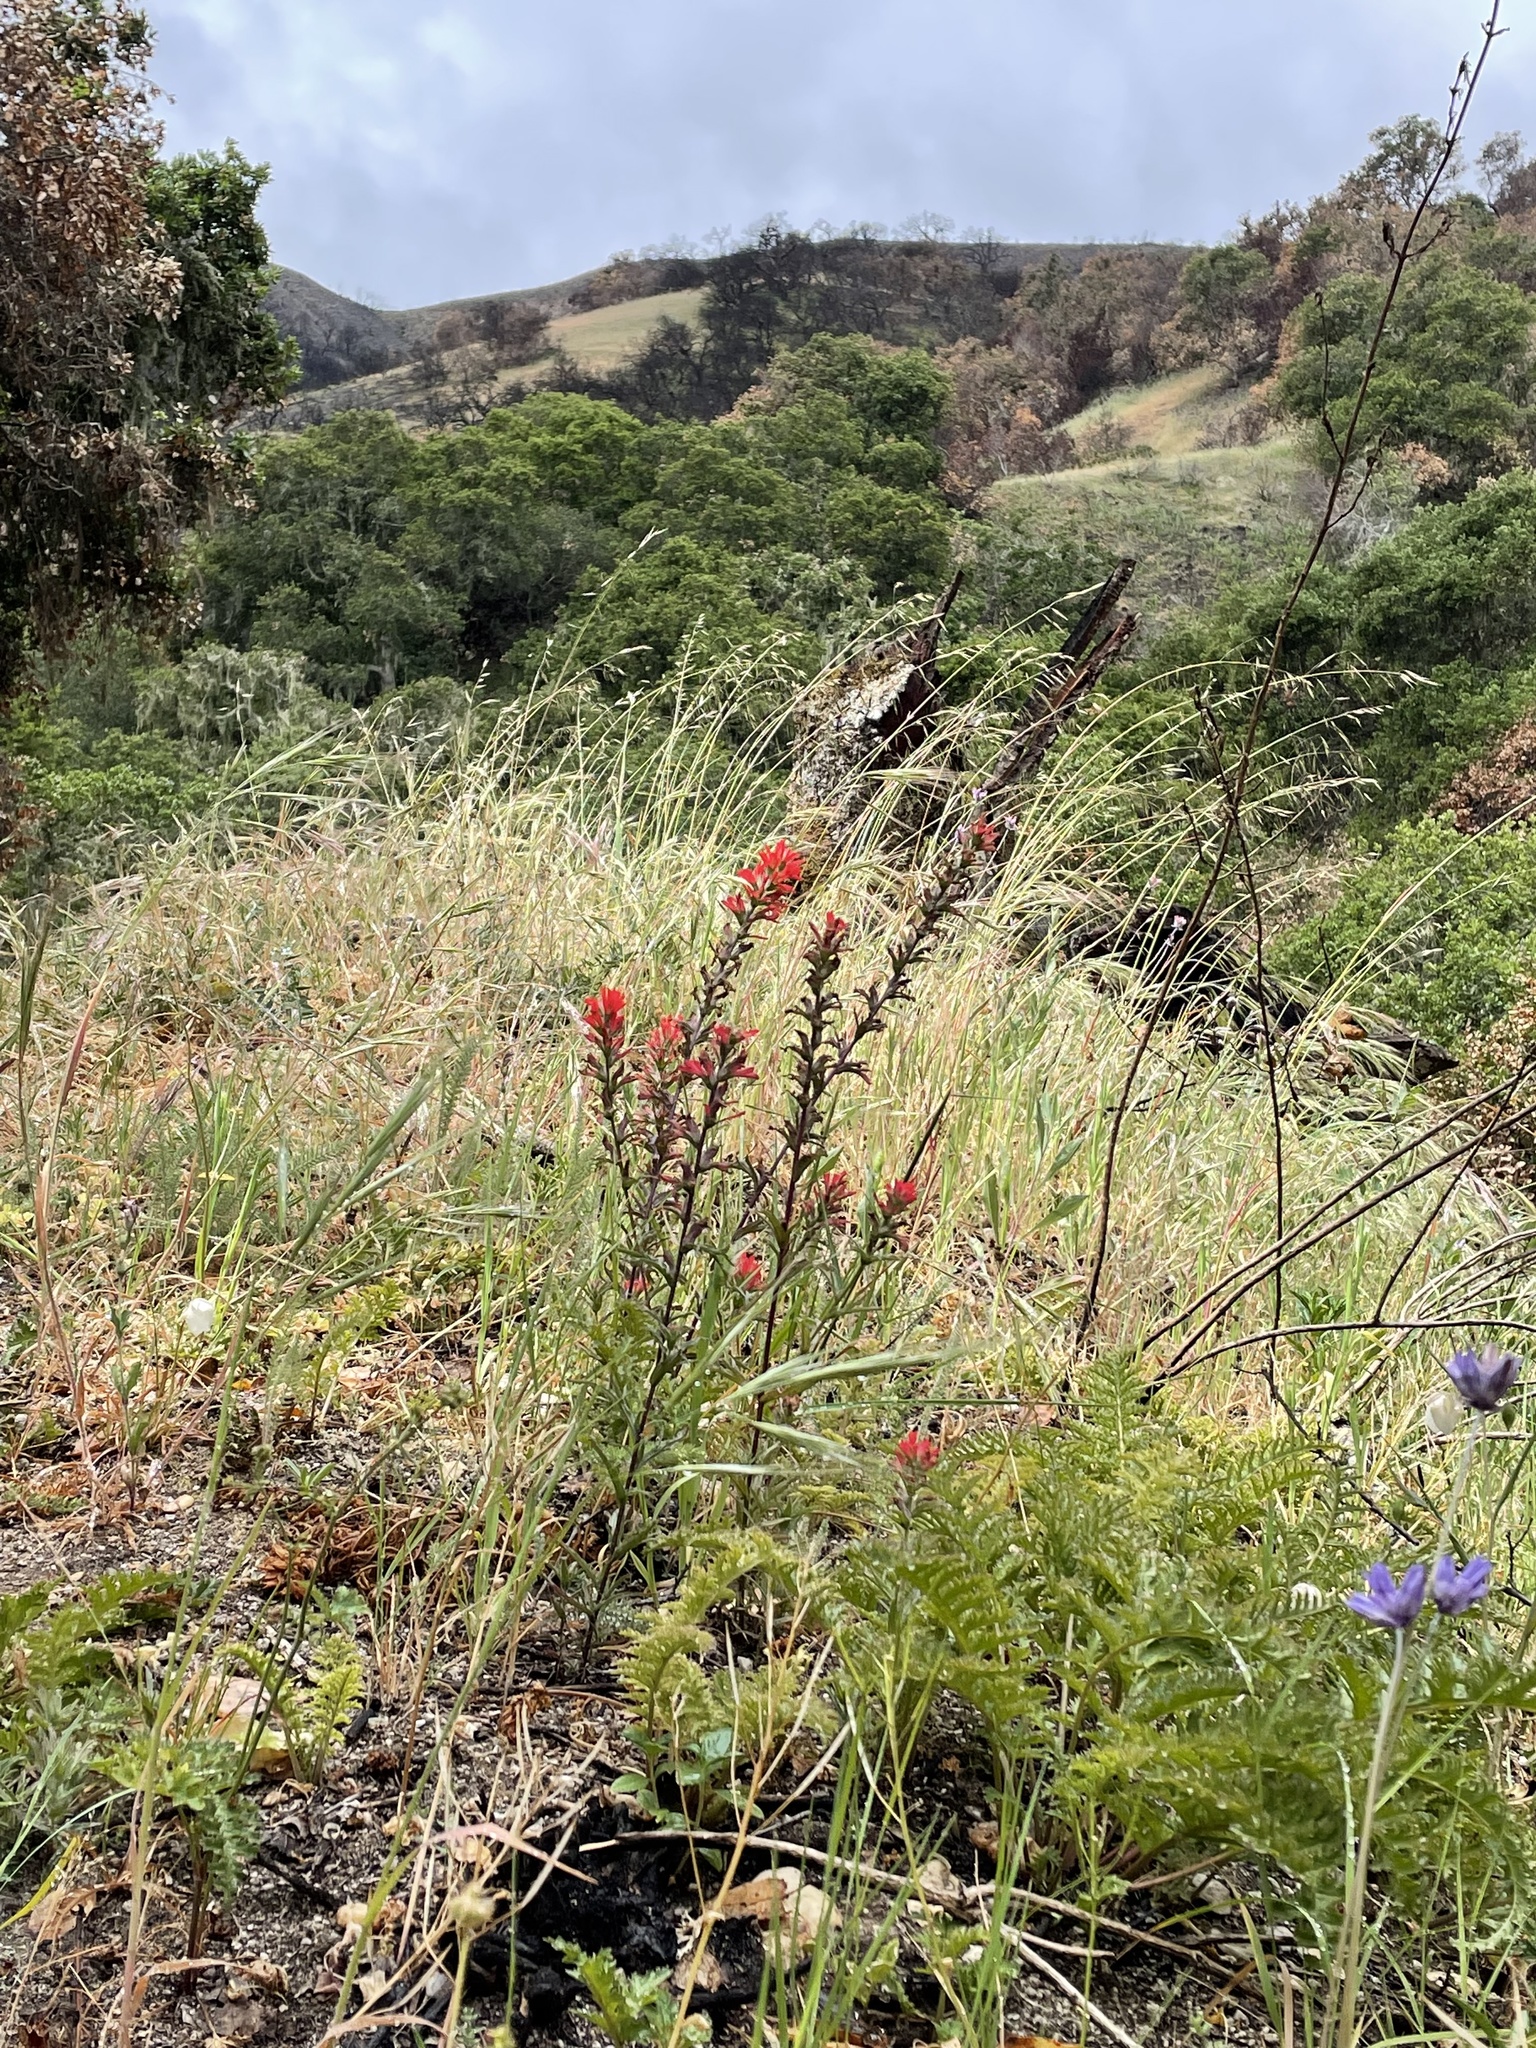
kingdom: Plantae
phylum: Tracheophyta
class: Magnoliopsida
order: Lamiales
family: Orobanchaceae
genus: Castilleja
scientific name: Castilleja affinis
